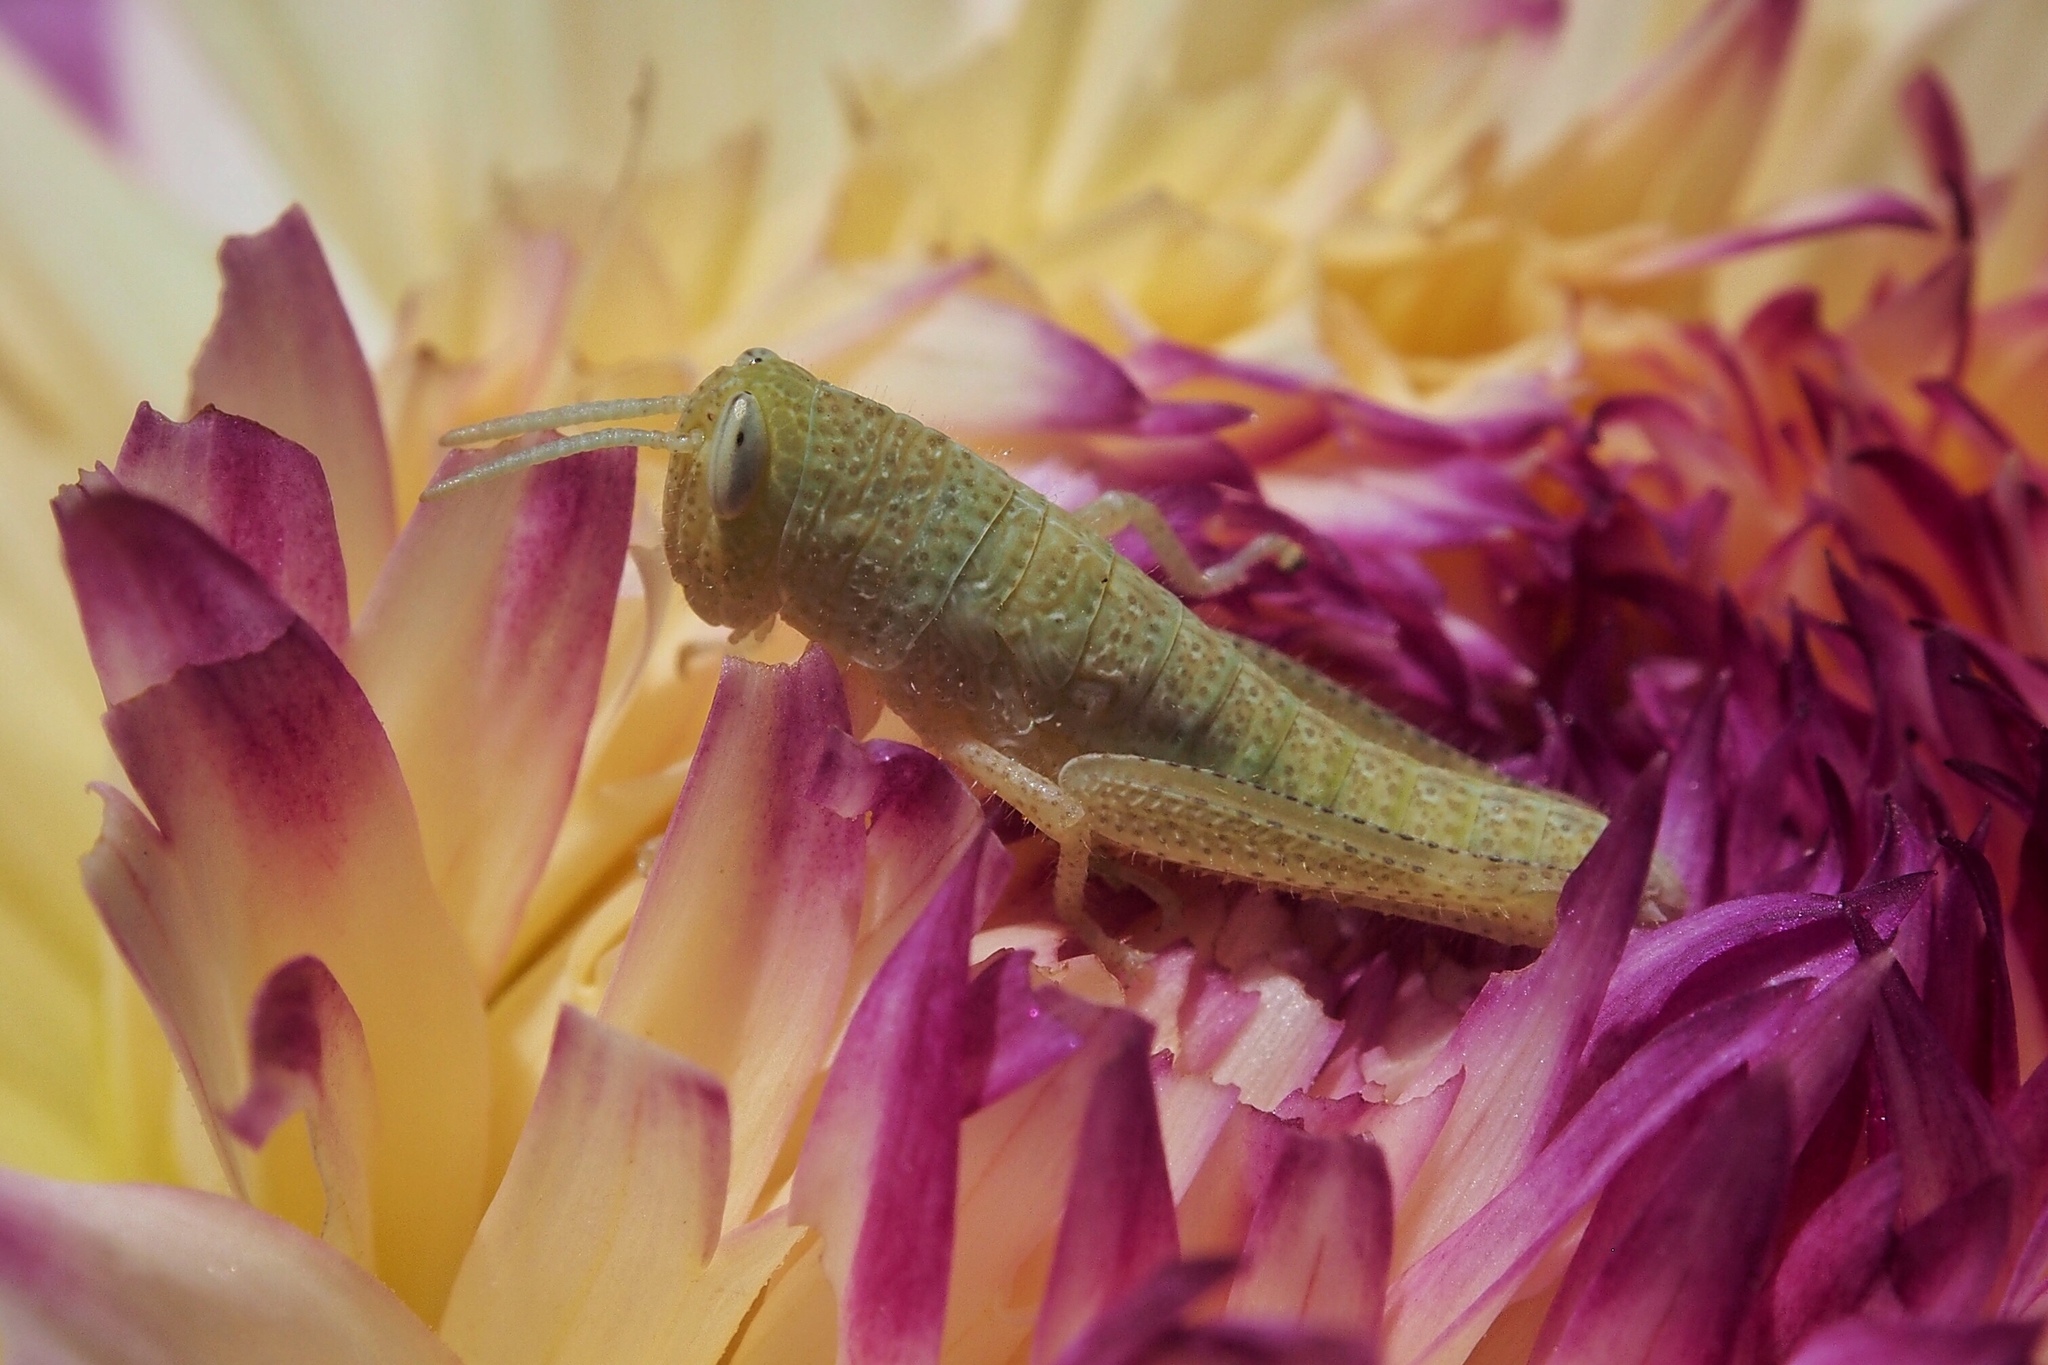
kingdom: Animalia
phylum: Arthropoda
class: Insecta
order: Orthoptera
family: Acrididae
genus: Schistocerca
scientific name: Schistocerca nitens
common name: Vagrant grasshopper
